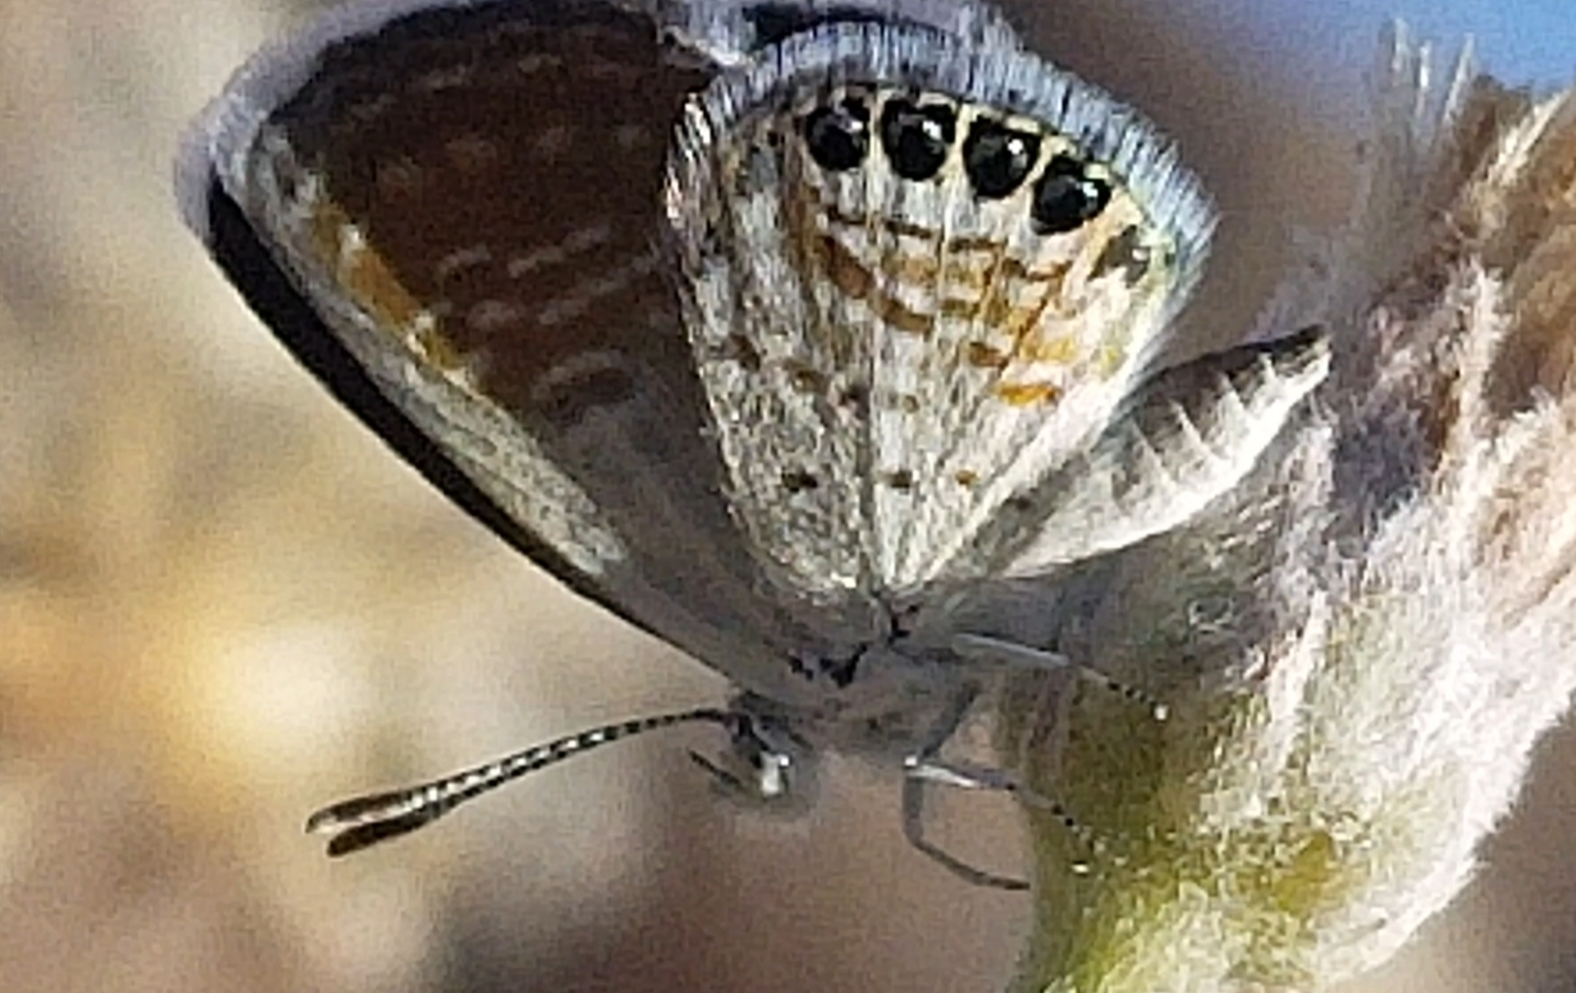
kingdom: Animalia
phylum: Arthropoda
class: Insecta
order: Lepidoptera
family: Lycaenidae
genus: Brephidium
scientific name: Brephidium exilis
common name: Pygmy blue
